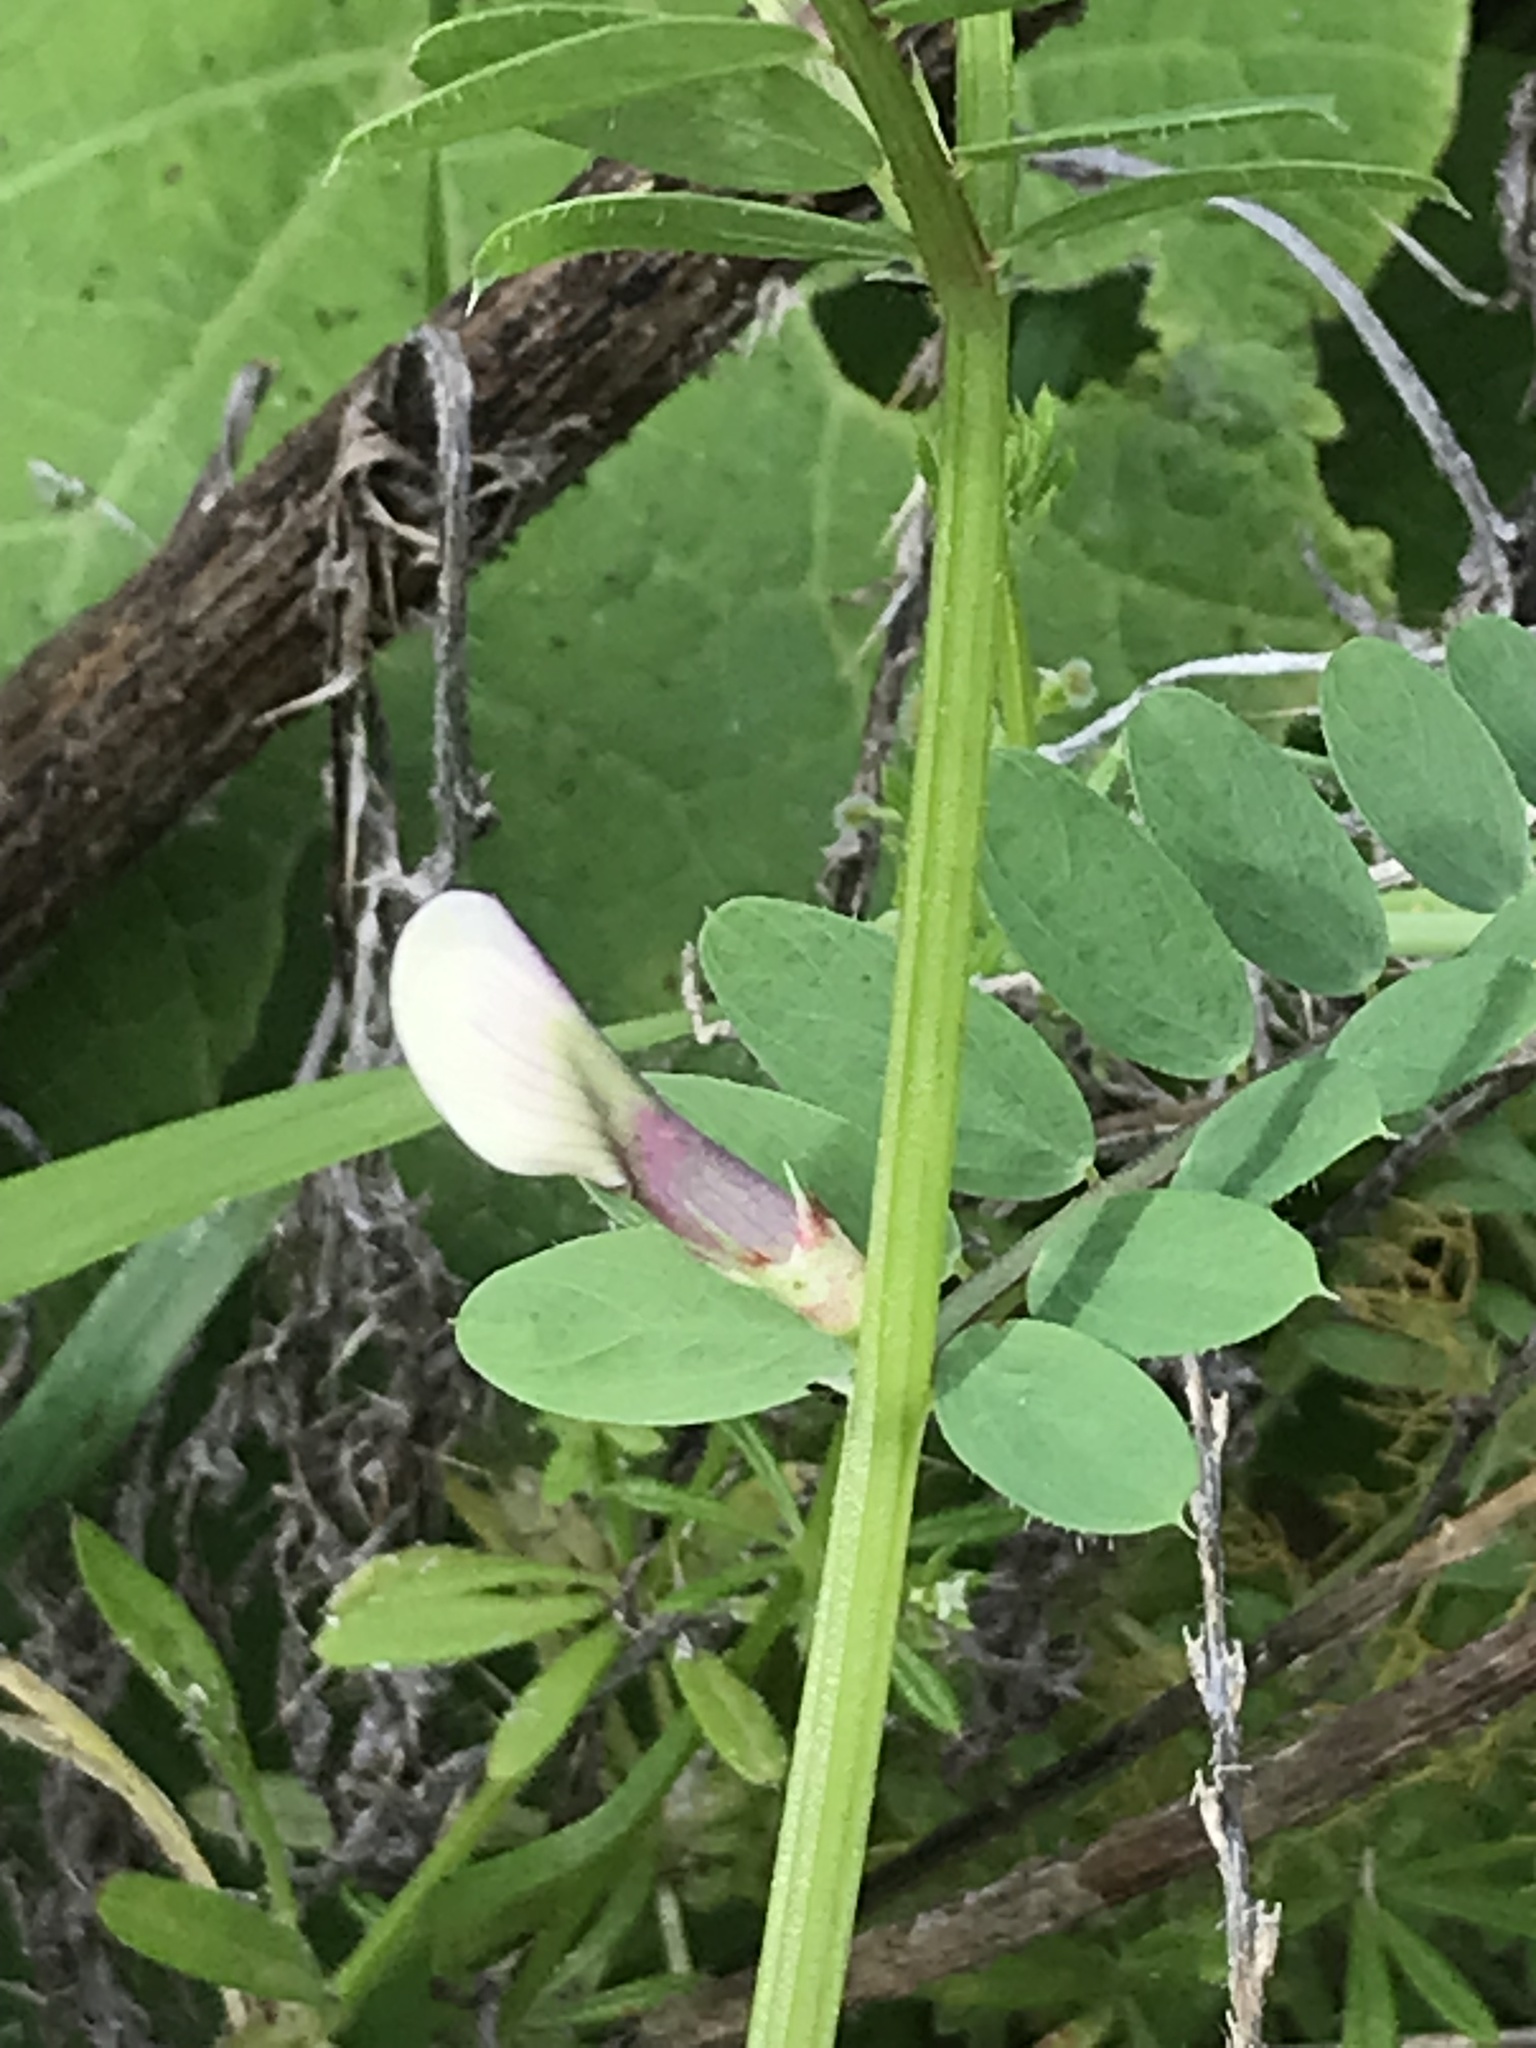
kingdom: Plantae
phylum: Tracheophyta
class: Magnoliopsida
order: Fabales
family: Fabaceae
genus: Vicia
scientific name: Vicia lutea
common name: Smooth yellow vetch
